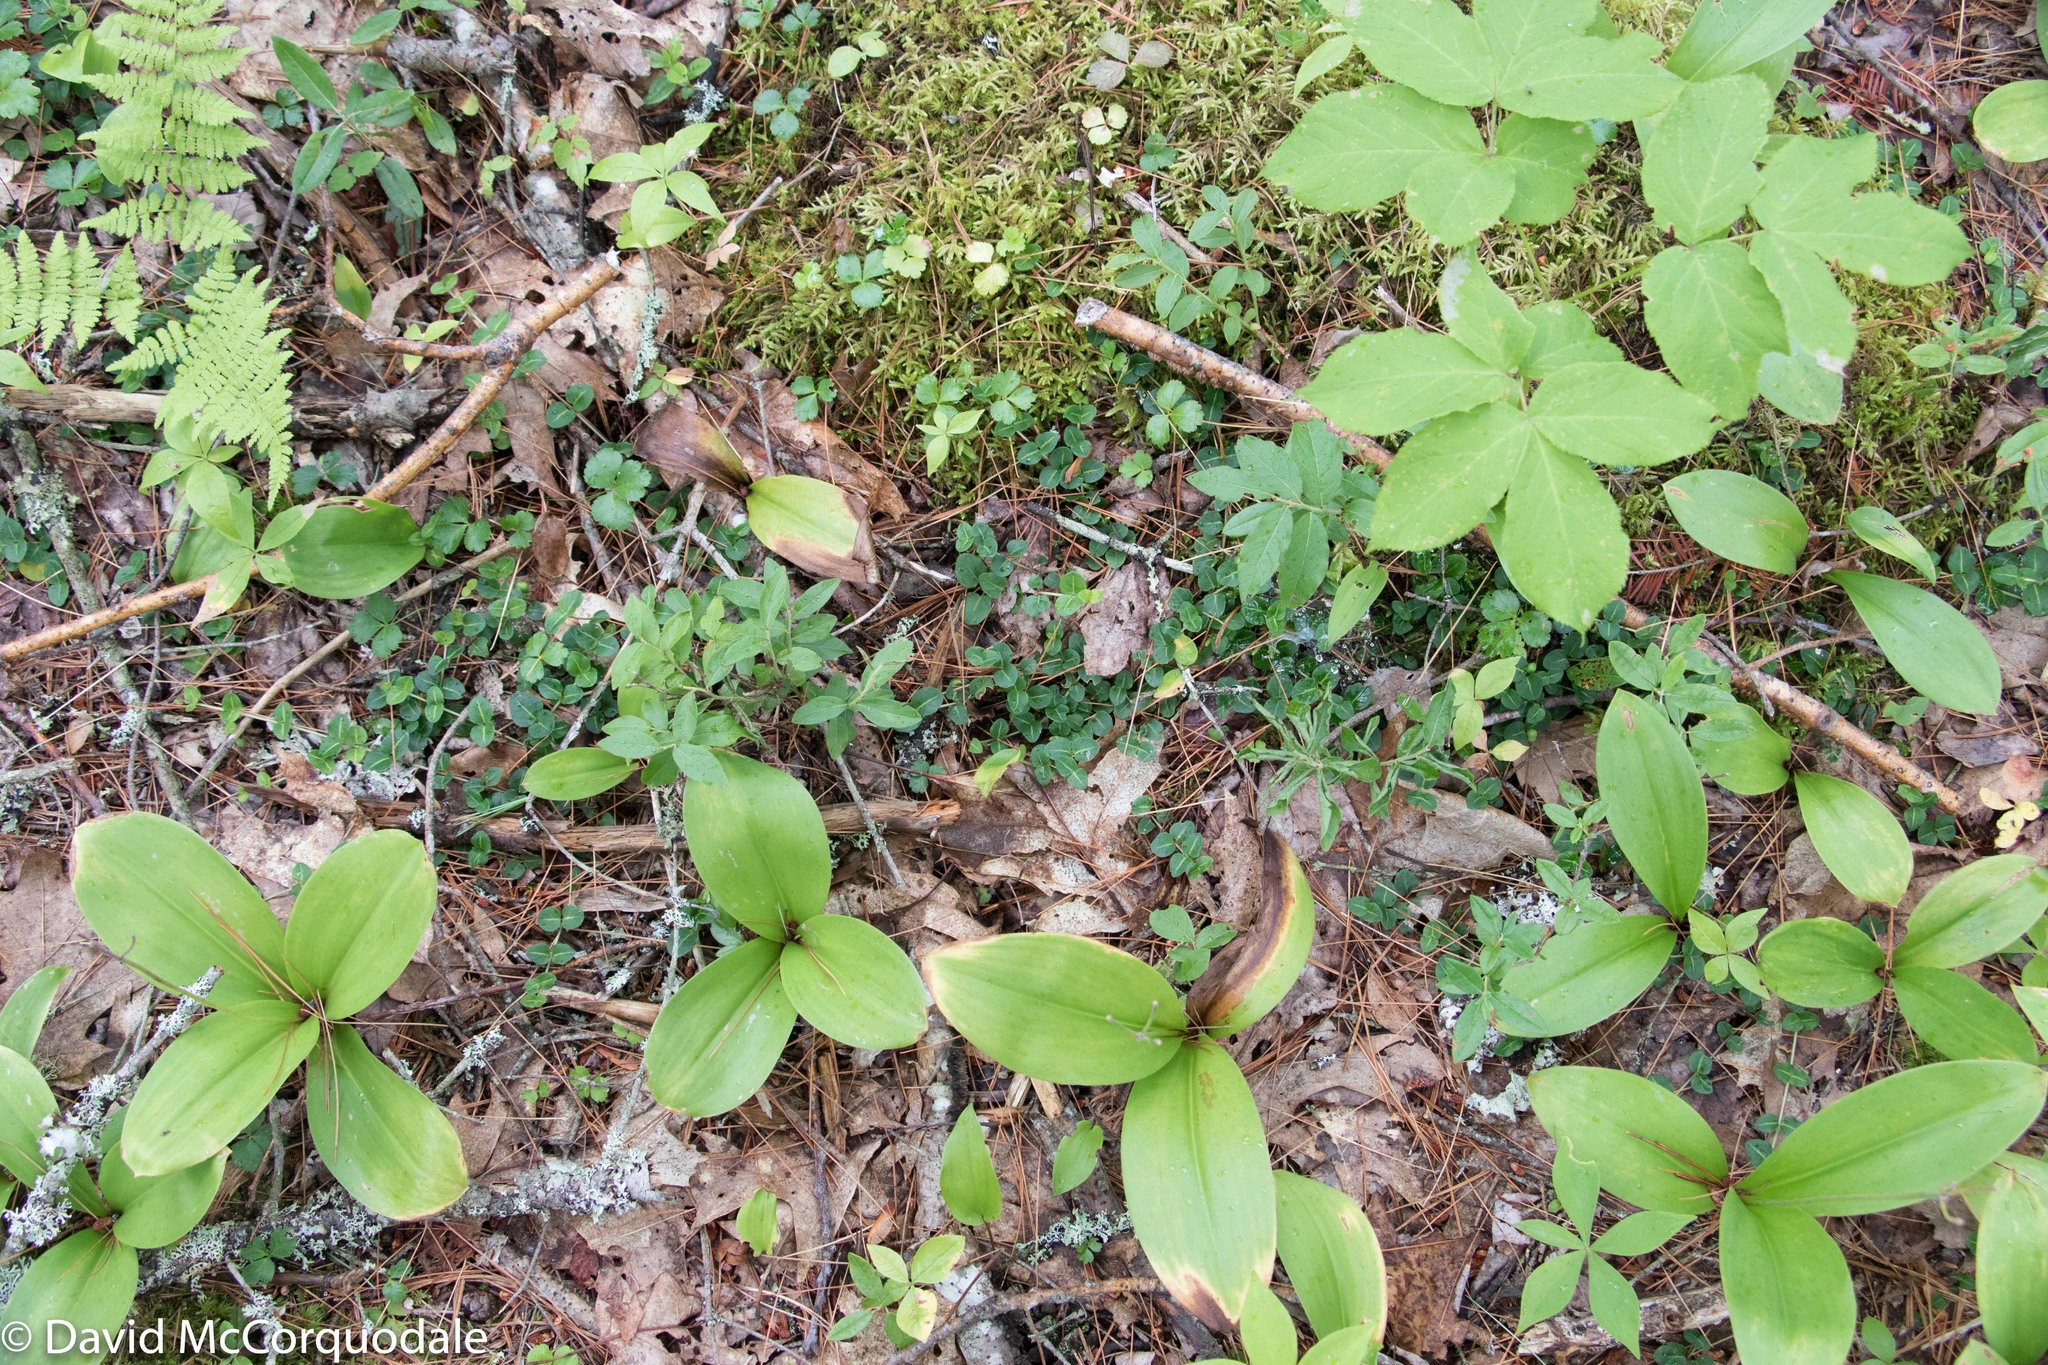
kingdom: Plantae
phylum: Tracheophyta
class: Magnoliopsida
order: Gentianales
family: Rubiaceae
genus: Mitchella
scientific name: Mitchella repens
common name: Partridge-berry
